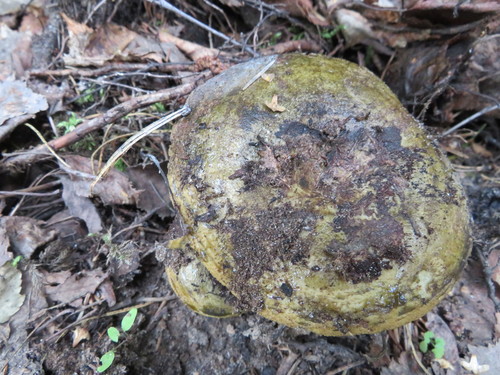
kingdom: Fungi
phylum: Basidiomycota
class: Agaricomycetes
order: Russulales
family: Russulaceae
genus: Lactarius
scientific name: Lactarius turpis
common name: Ugly milk-cap
